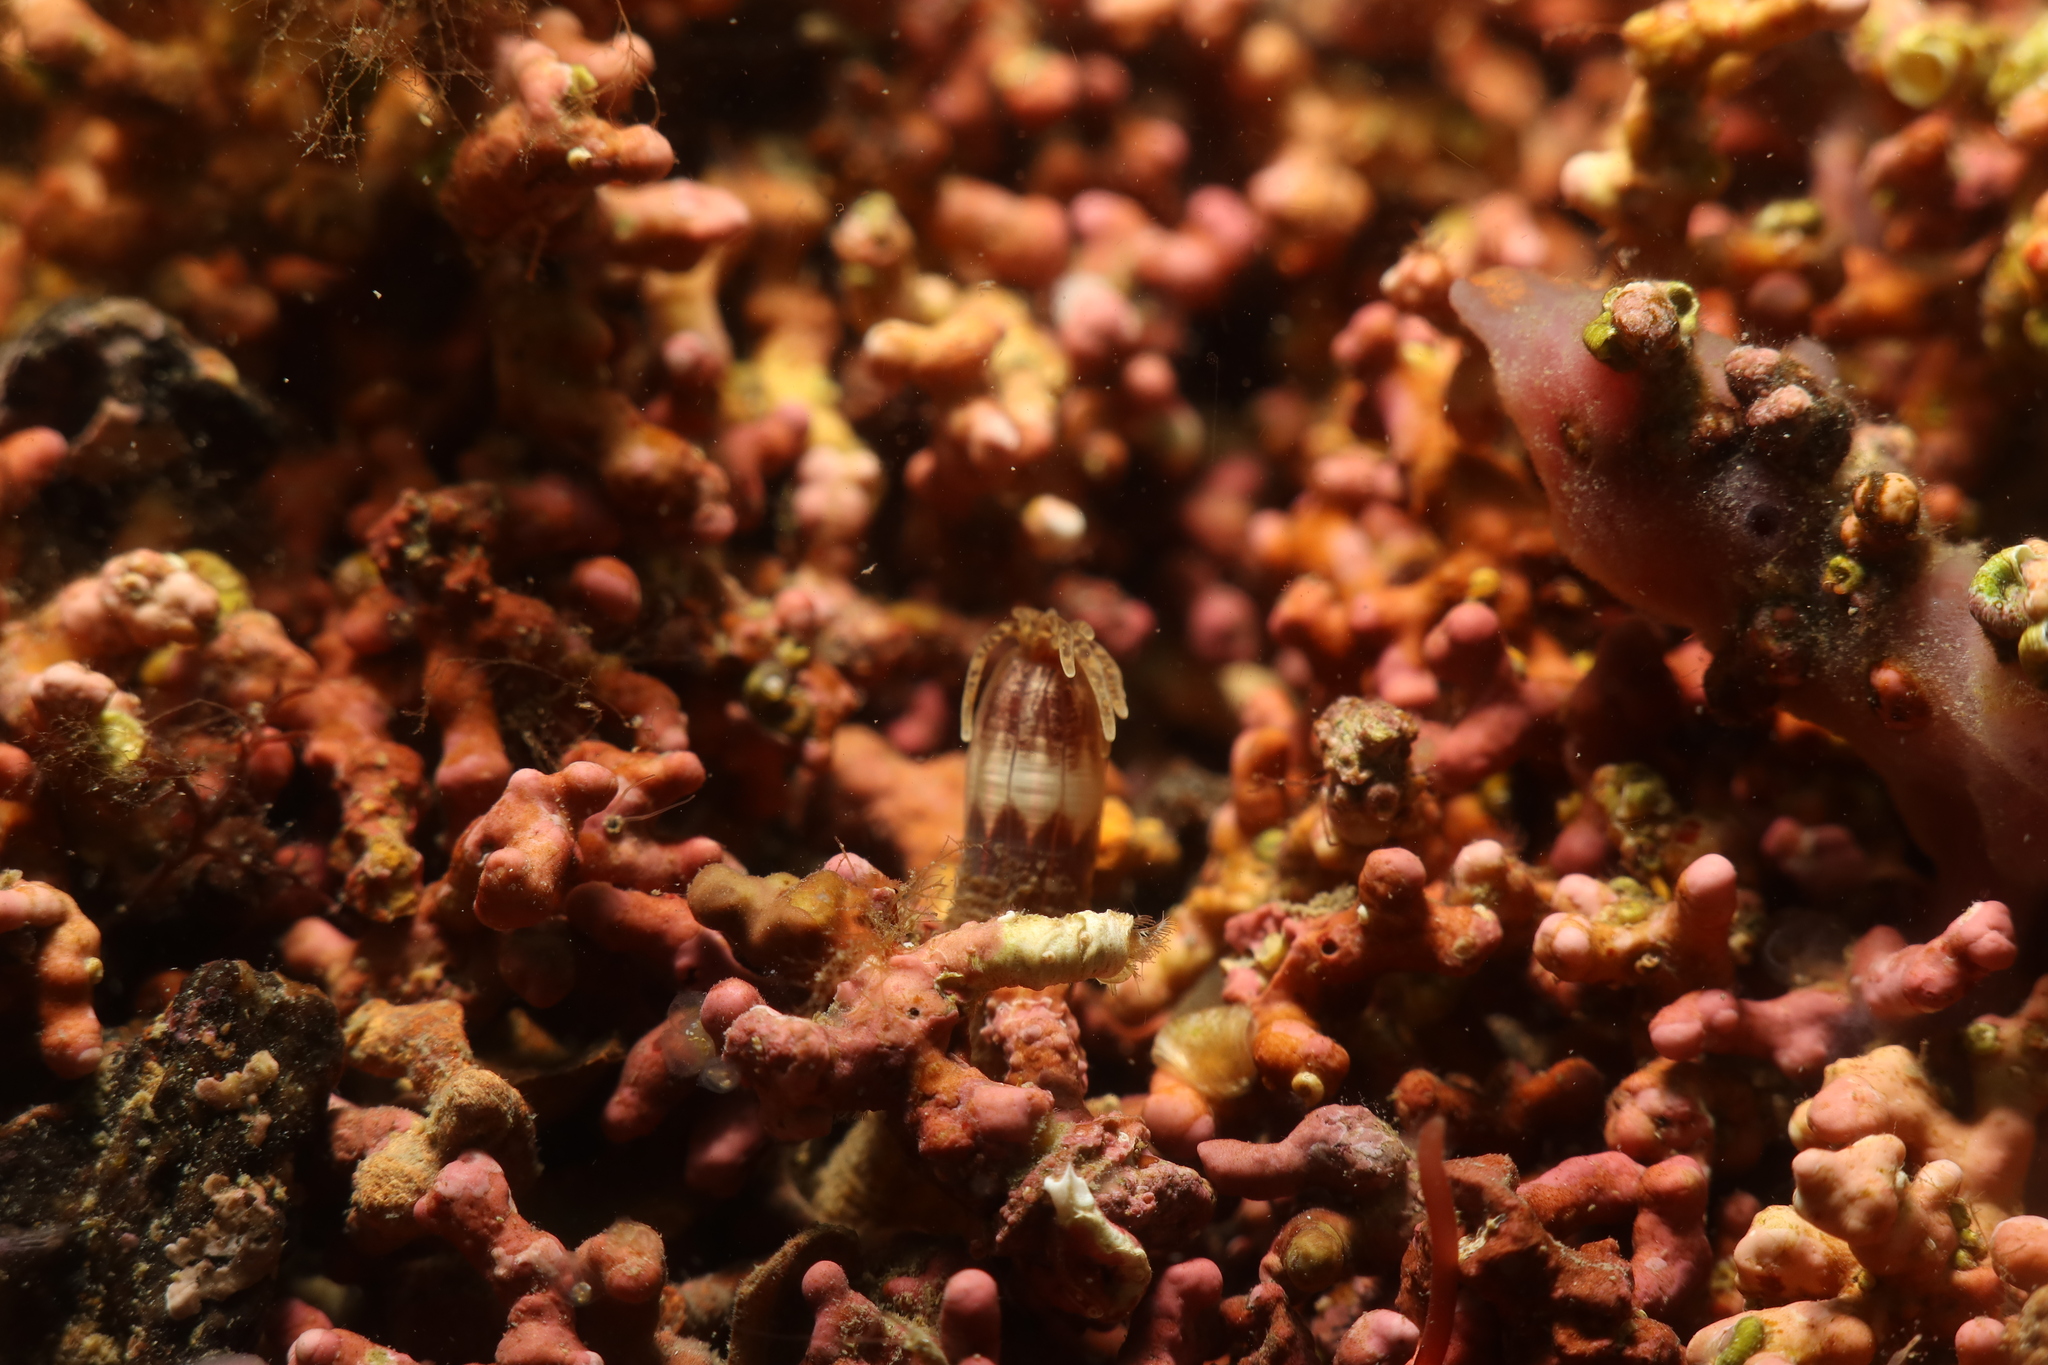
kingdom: Animalia
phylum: Cnidaria
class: Anthozoa
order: Actiniaria
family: Edwardsiidae
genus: Scolanthus
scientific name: Scolanthus callimorphus
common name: Worm anemone
